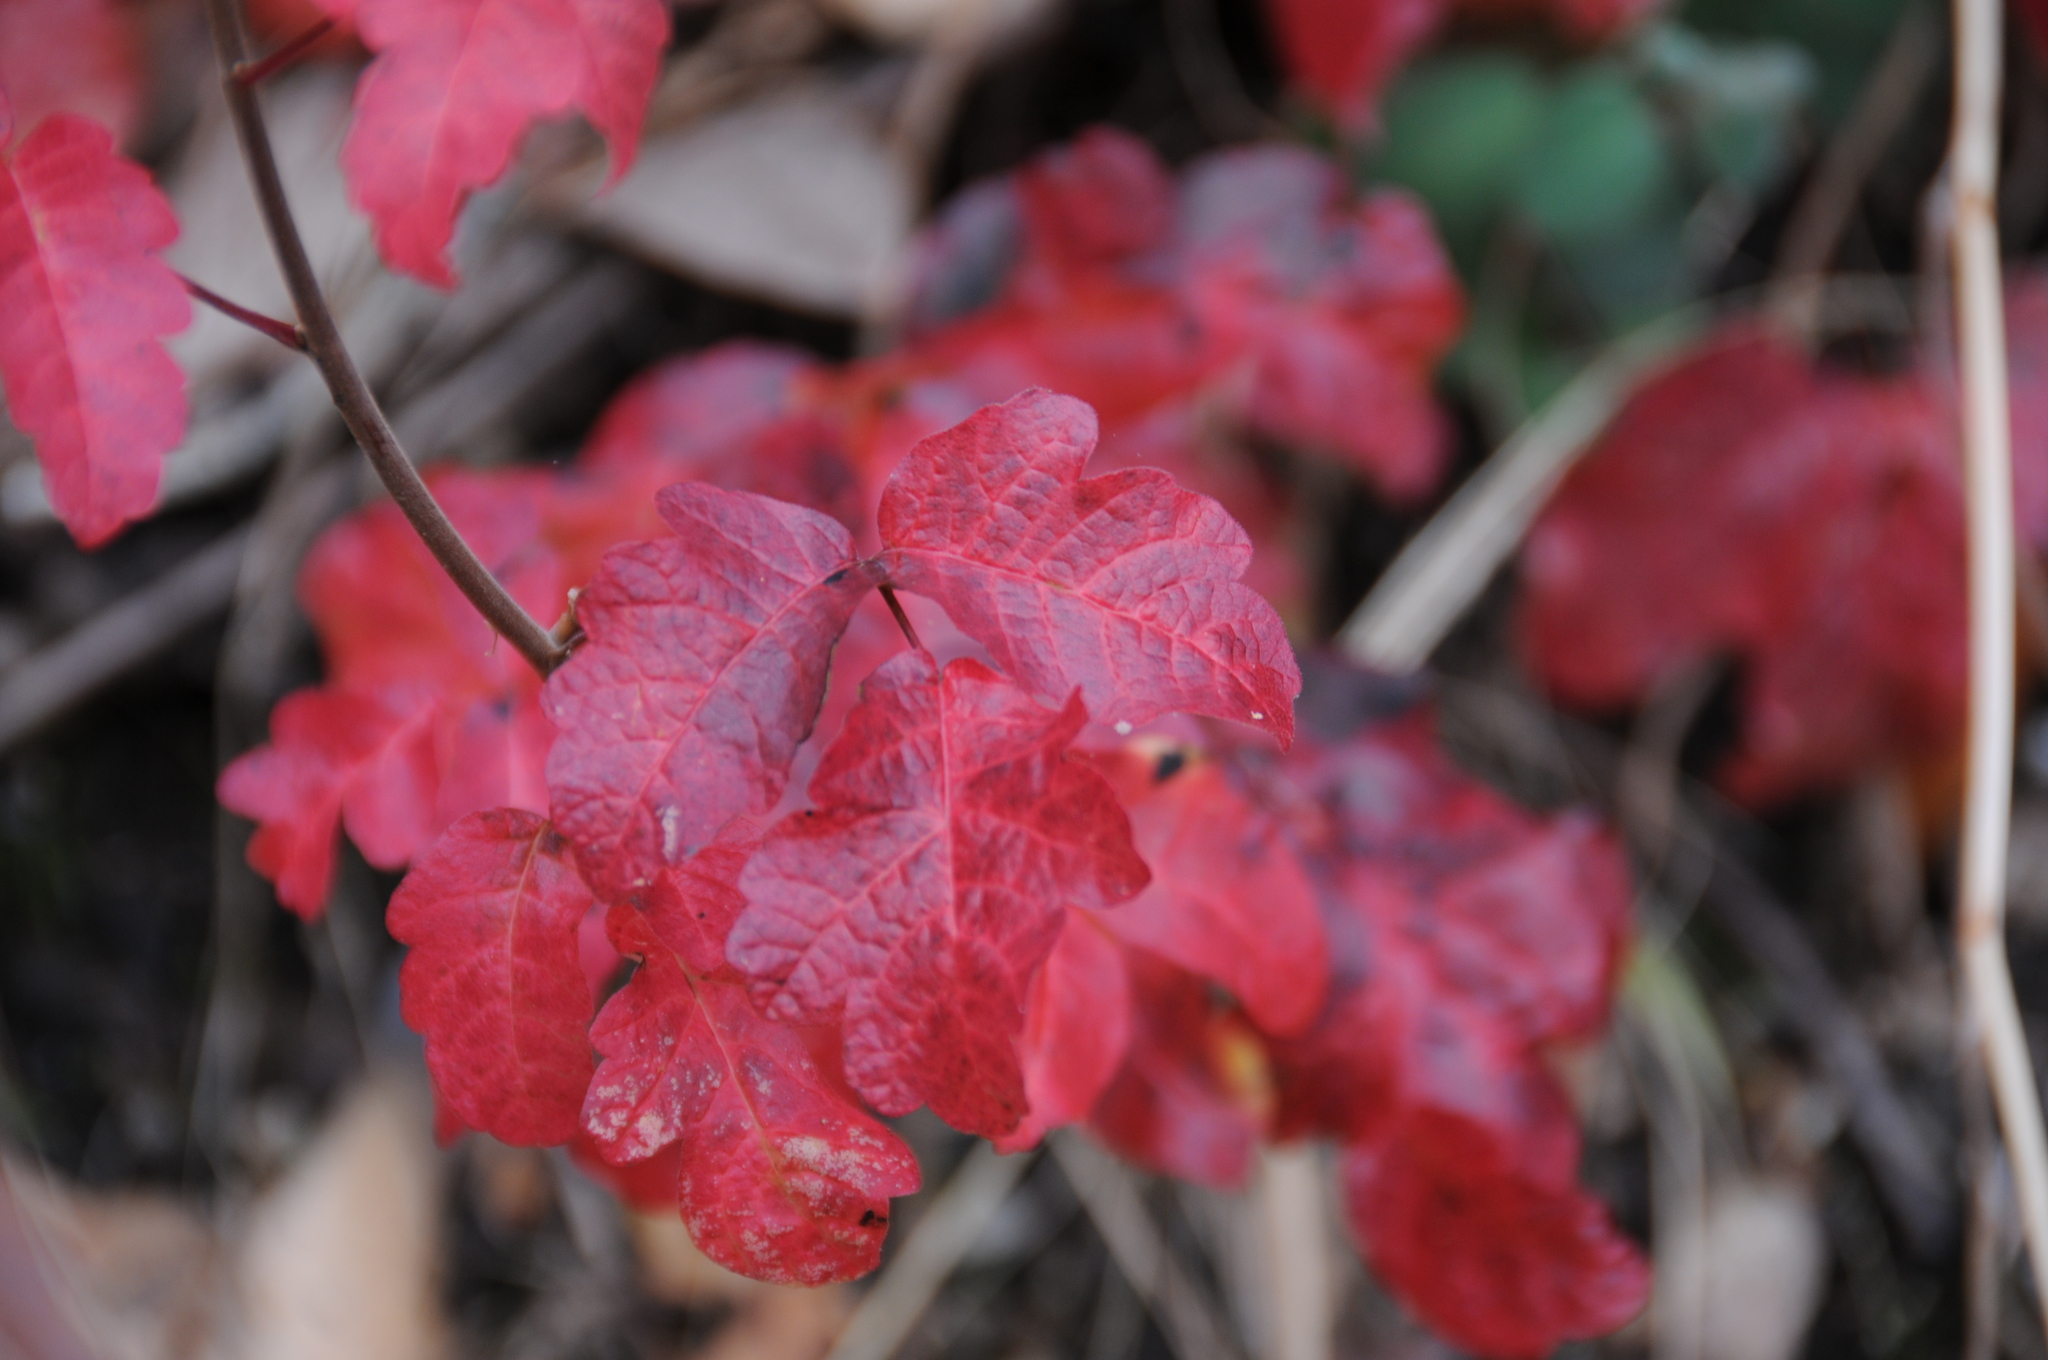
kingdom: Plantae
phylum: Tracheophyta
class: Magnoliopsida
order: Sapindales
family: Anacardiaceae
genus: Toxicodendron
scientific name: Toxicodendron diversilobum
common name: Pacific poison-oak
